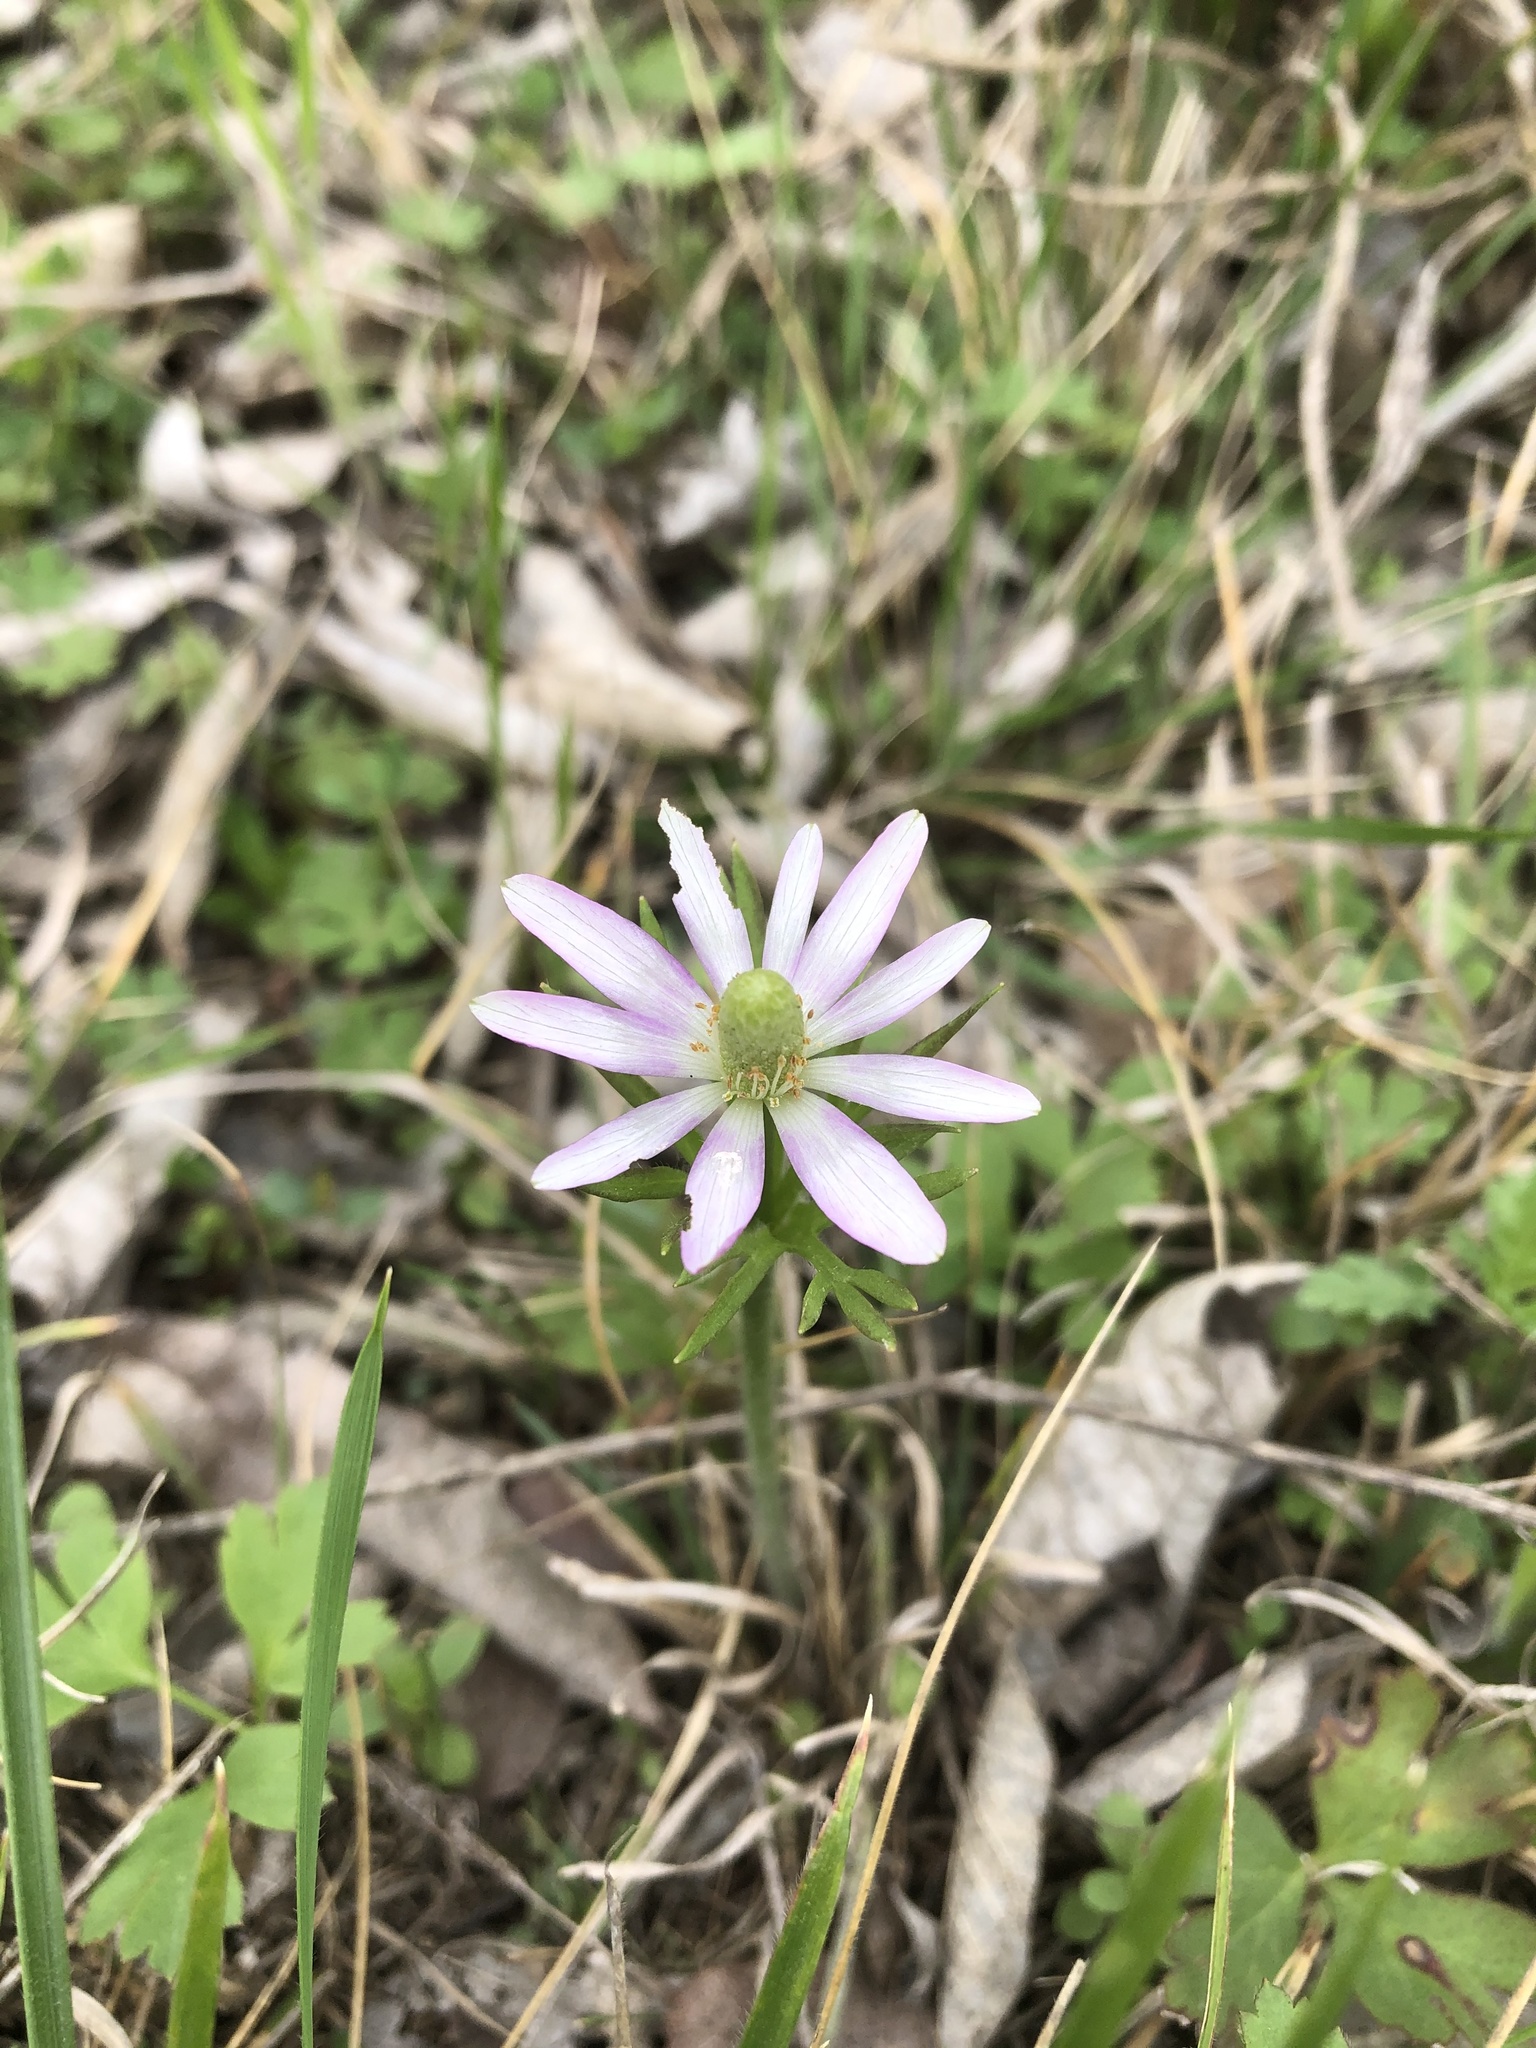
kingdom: Plantae
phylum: Tracheophyta
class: Magnoliopsida
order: Ranunculales
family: Ranunculaceae
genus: Anemone
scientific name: Anemone berlandieri
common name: Ten-petal anemone
